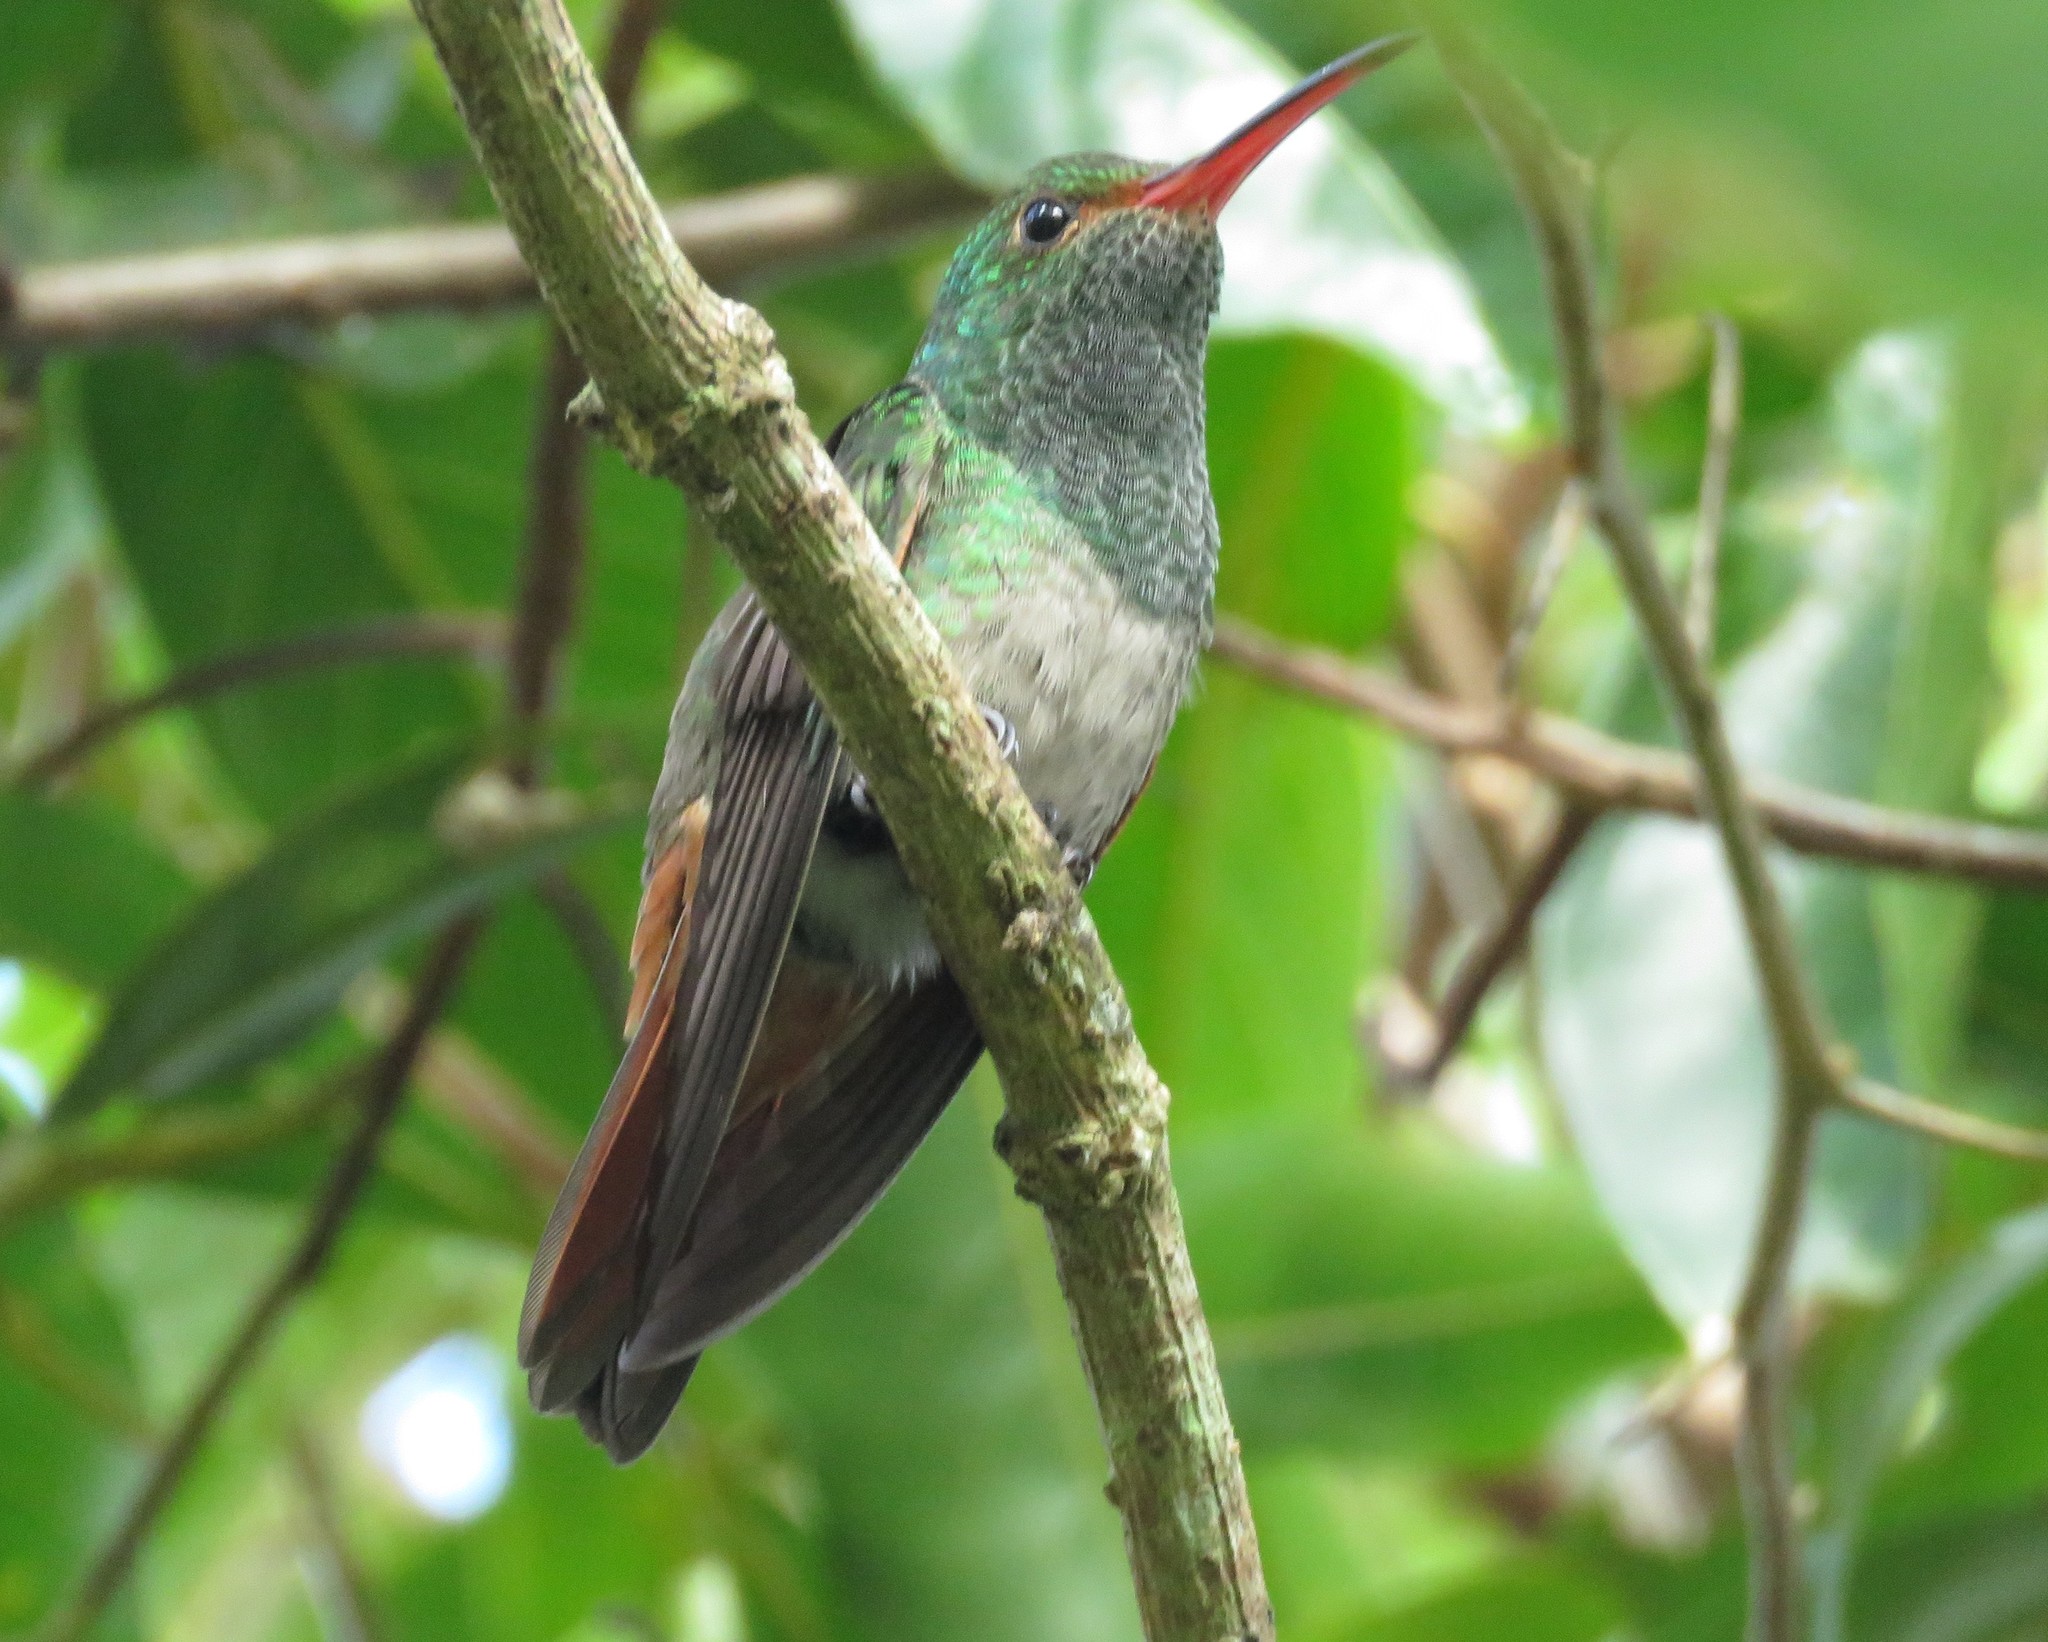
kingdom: Animalia
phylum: Chordata
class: Aves
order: Apodiformes
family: Trochilidae
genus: Amazilia
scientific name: Amazilia tzacatl
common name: Rufous-tailed hummingbird
